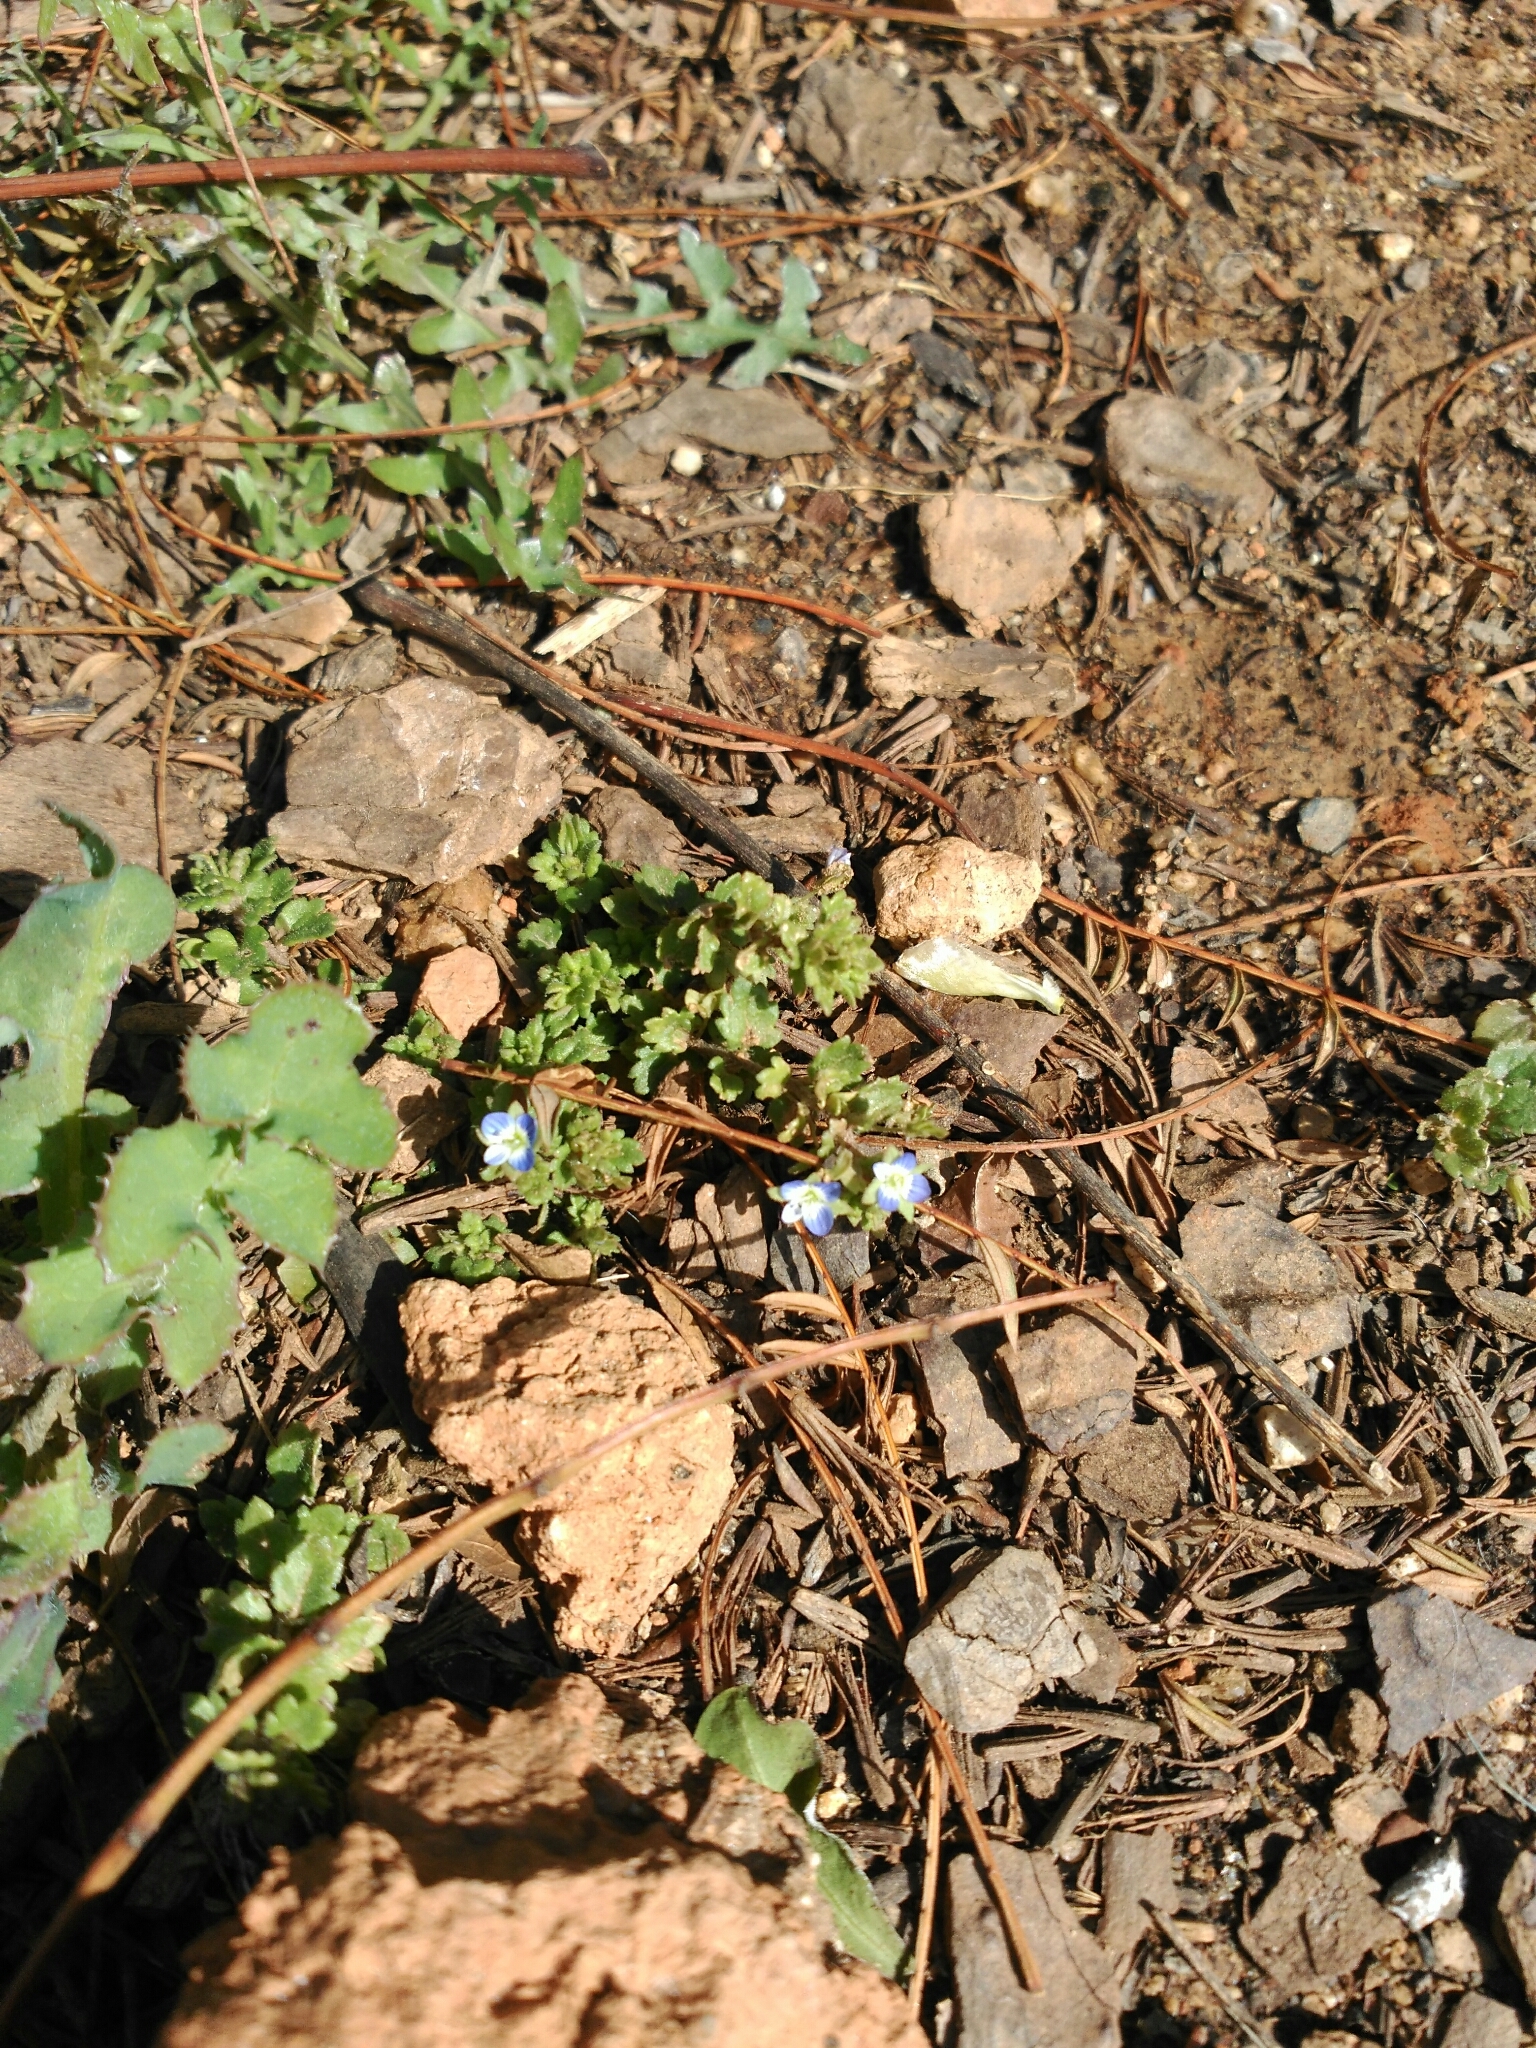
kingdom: Plantae
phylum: Tracheophyta
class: Magnoliopsida
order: Lamiales
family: Plantaginaceae
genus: Veronica
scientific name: Veronica persica
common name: Common field-speedwell
